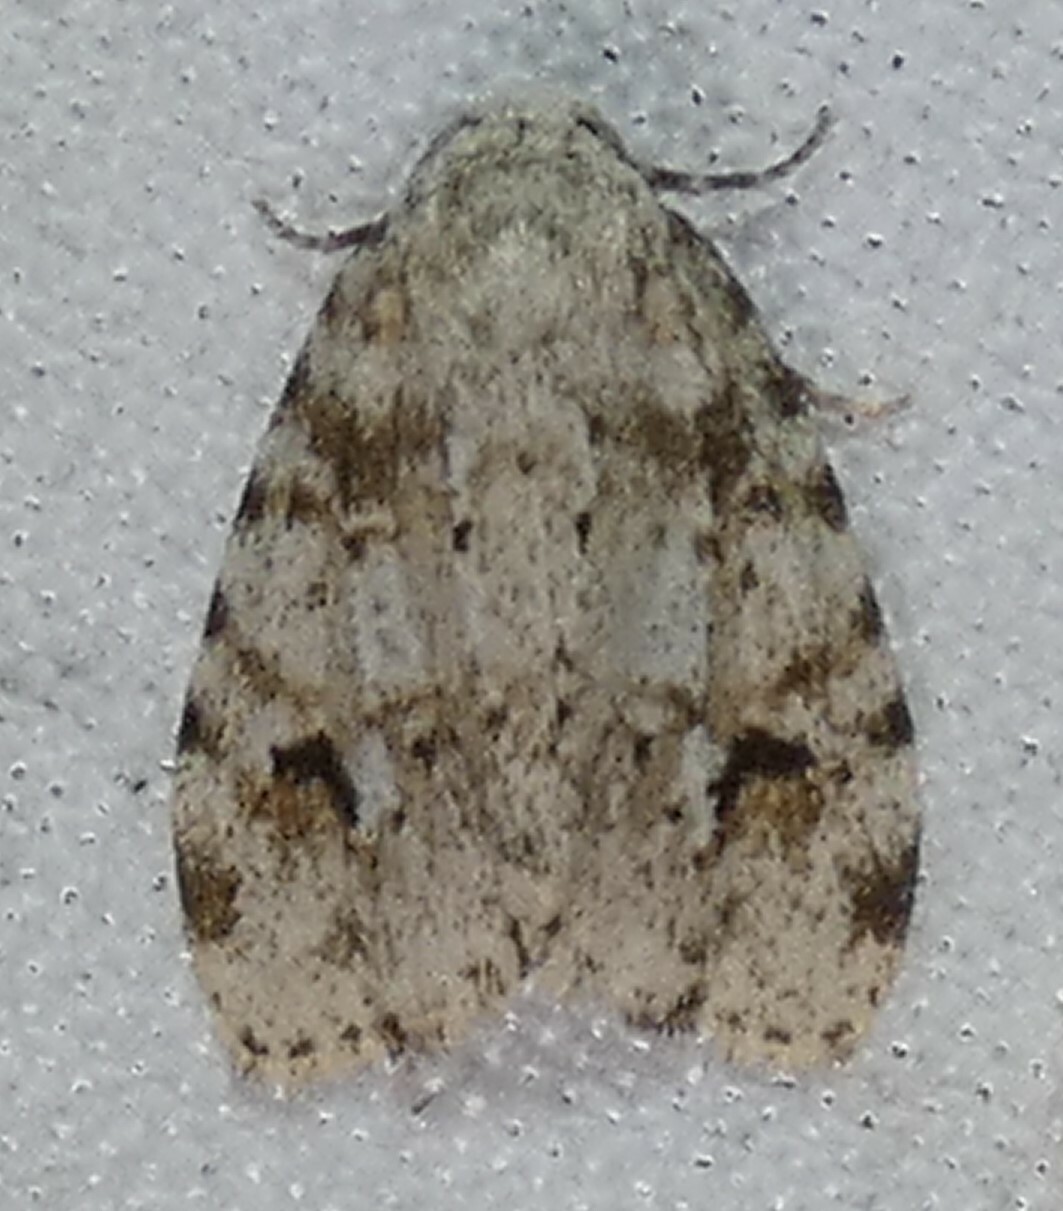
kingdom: Animalia
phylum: Arthropoda
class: Insecta
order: Lepidoptera
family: Erebidae
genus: Clemensia
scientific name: Clemensia ochreata
